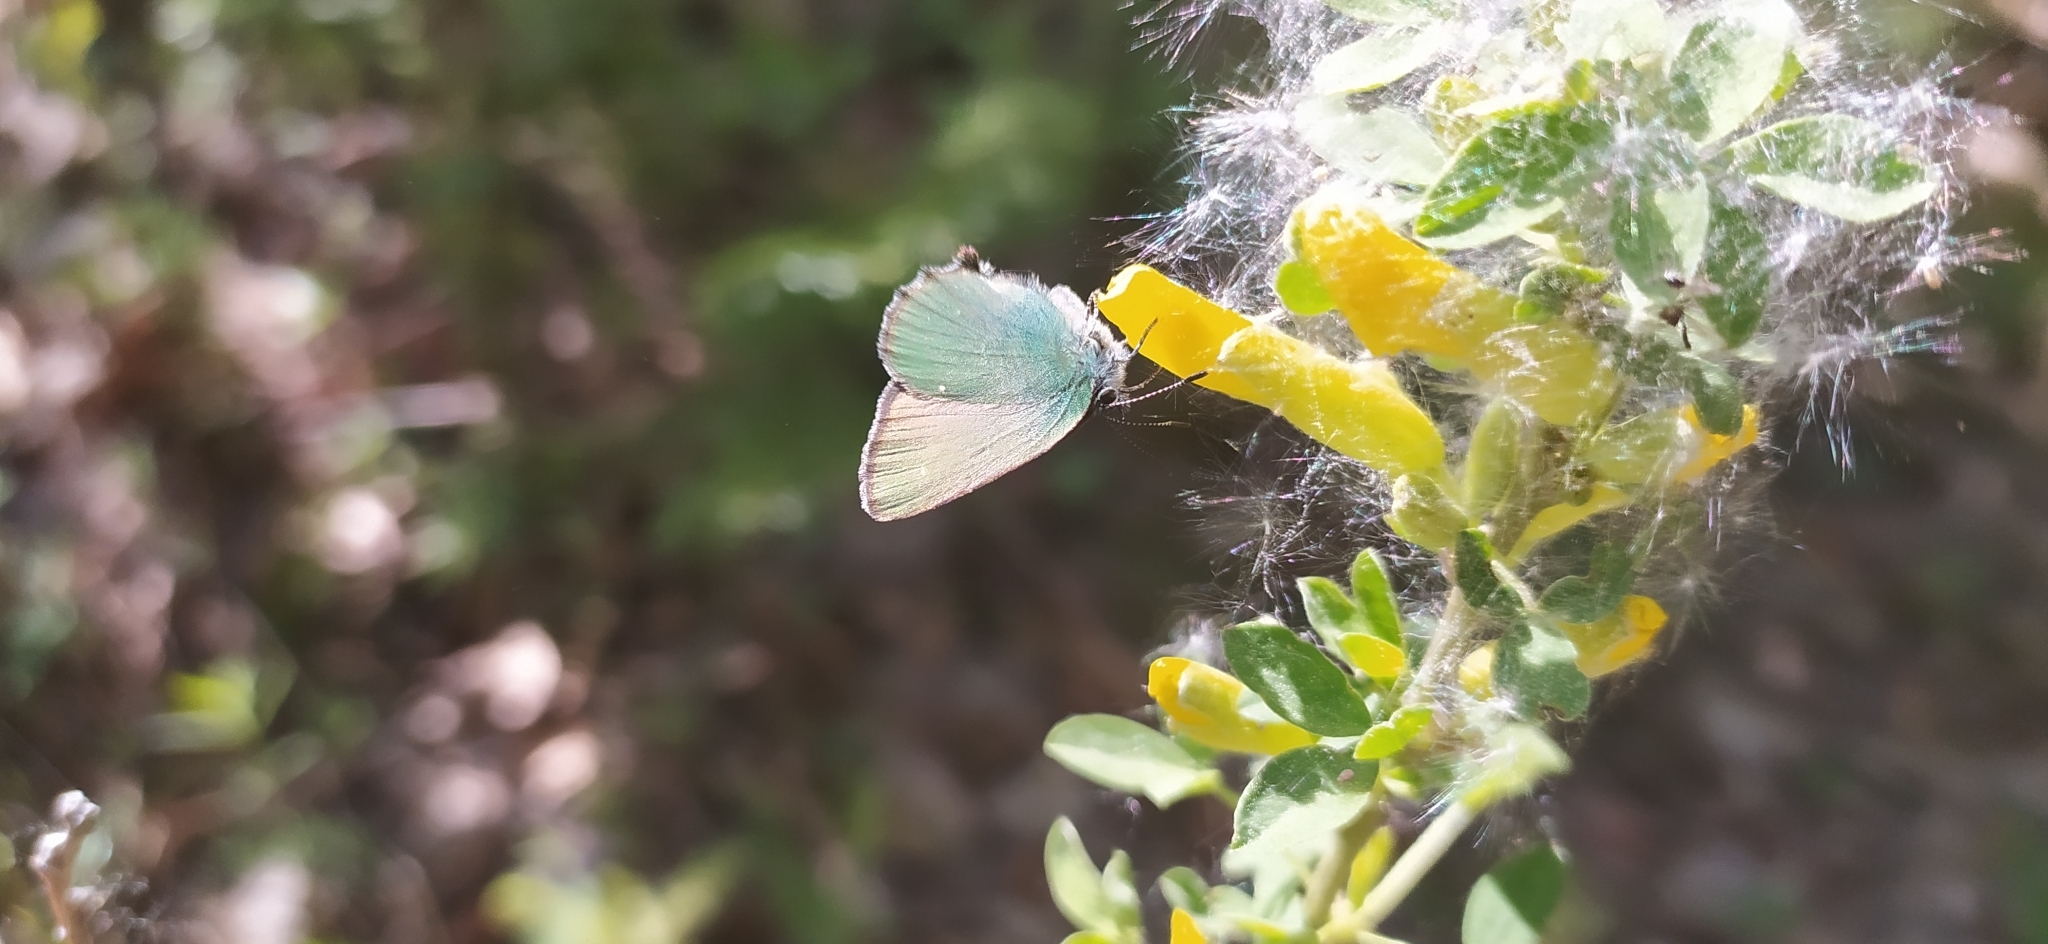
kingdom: Animalia
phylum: Arthropoda
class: Insecta
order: Lepidoptera
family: Lycaenidae
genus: Callophrys
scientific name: Callophrys rubi
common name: Green hairstreak
